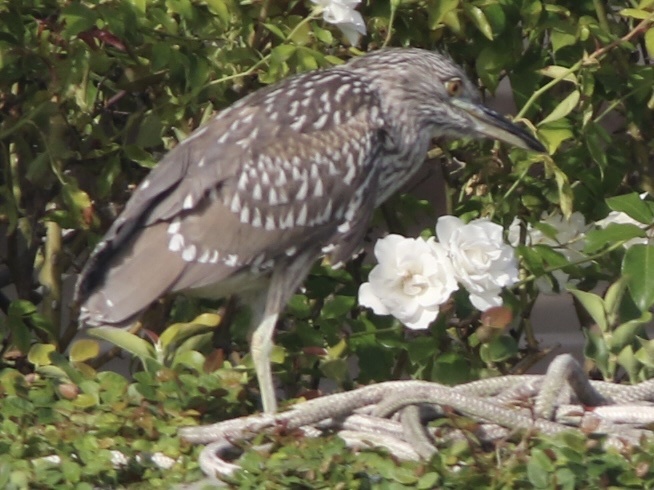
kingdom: Animalia
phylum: Chordata
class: Aves
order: Pelecaniformes
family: Ardeidae
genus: Nycticorax
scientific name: Nycticorax nycticorax
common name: Black-crowned night heron
